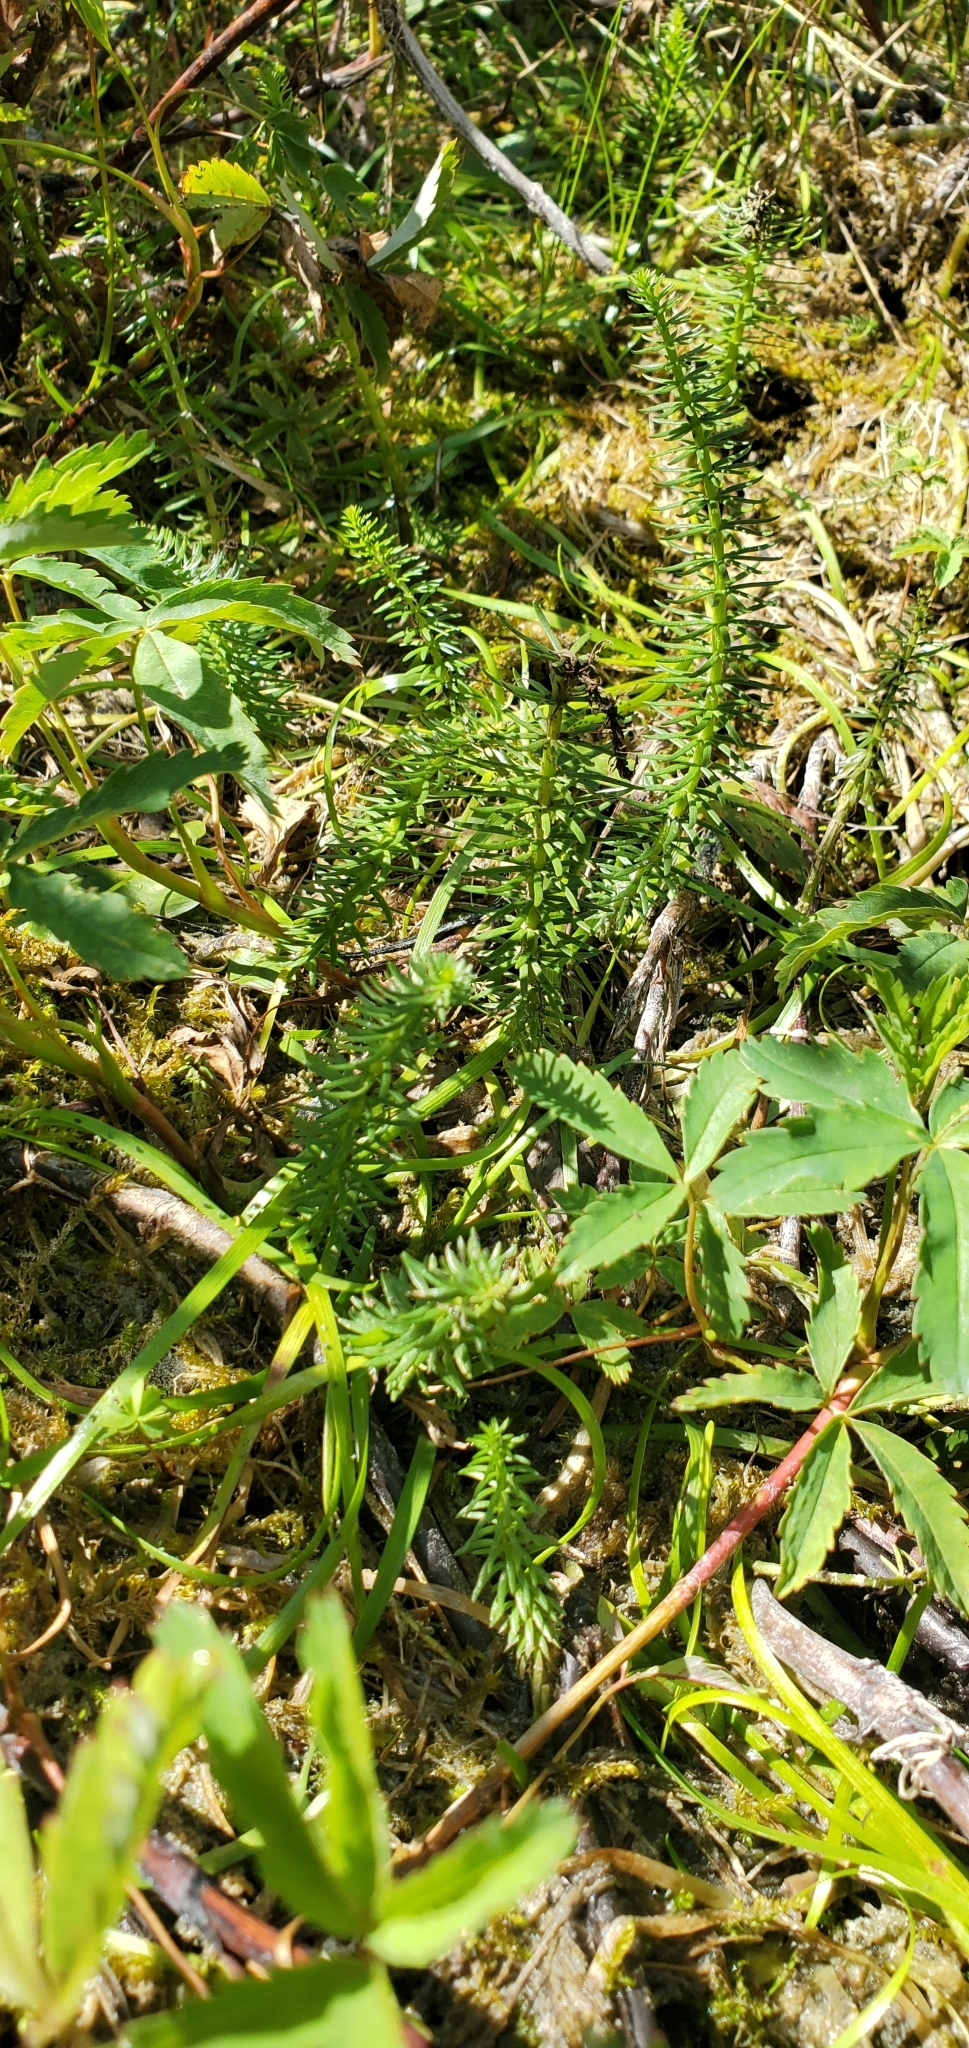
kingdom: Plantae
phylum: Tracheophyta
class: Magnoliopsida
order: Lamiales
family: Plantaginaceae
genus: Hippuris
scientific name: Hippuris vulgaris
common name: Mare's-tail
